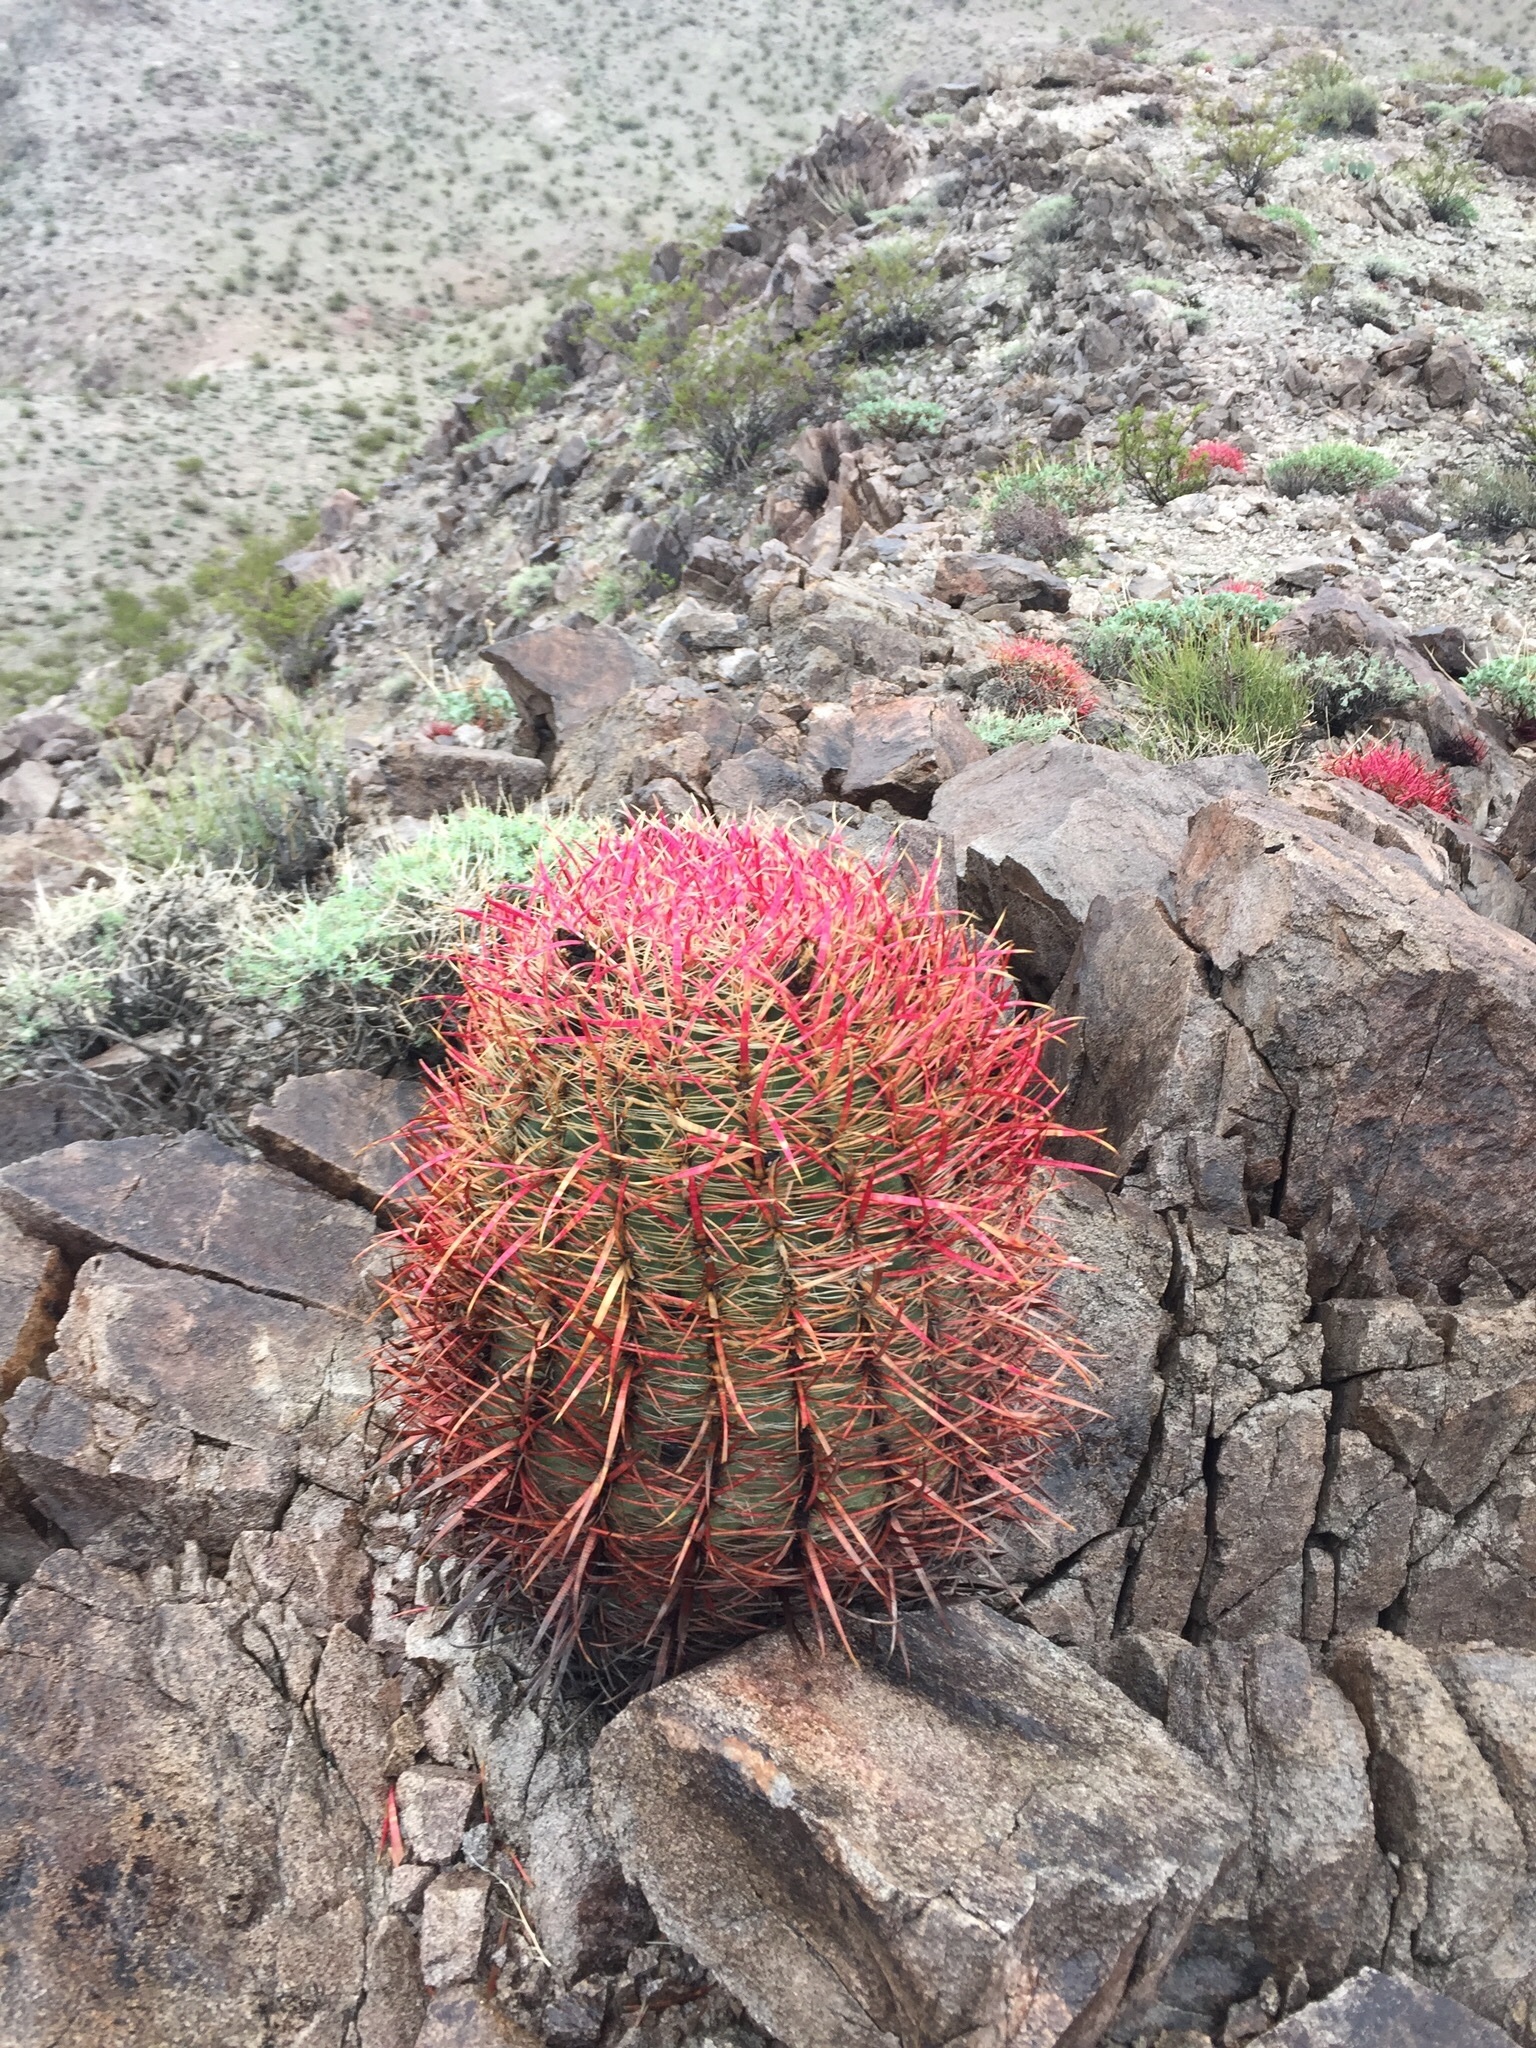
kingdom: Plantae
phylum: Tracheophyta
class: Magnoliopsida
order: Caryophyllales
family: Cactaceae
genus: Ferocactus
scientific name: Ferocactus cylindraceus
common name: California barrel cactus
